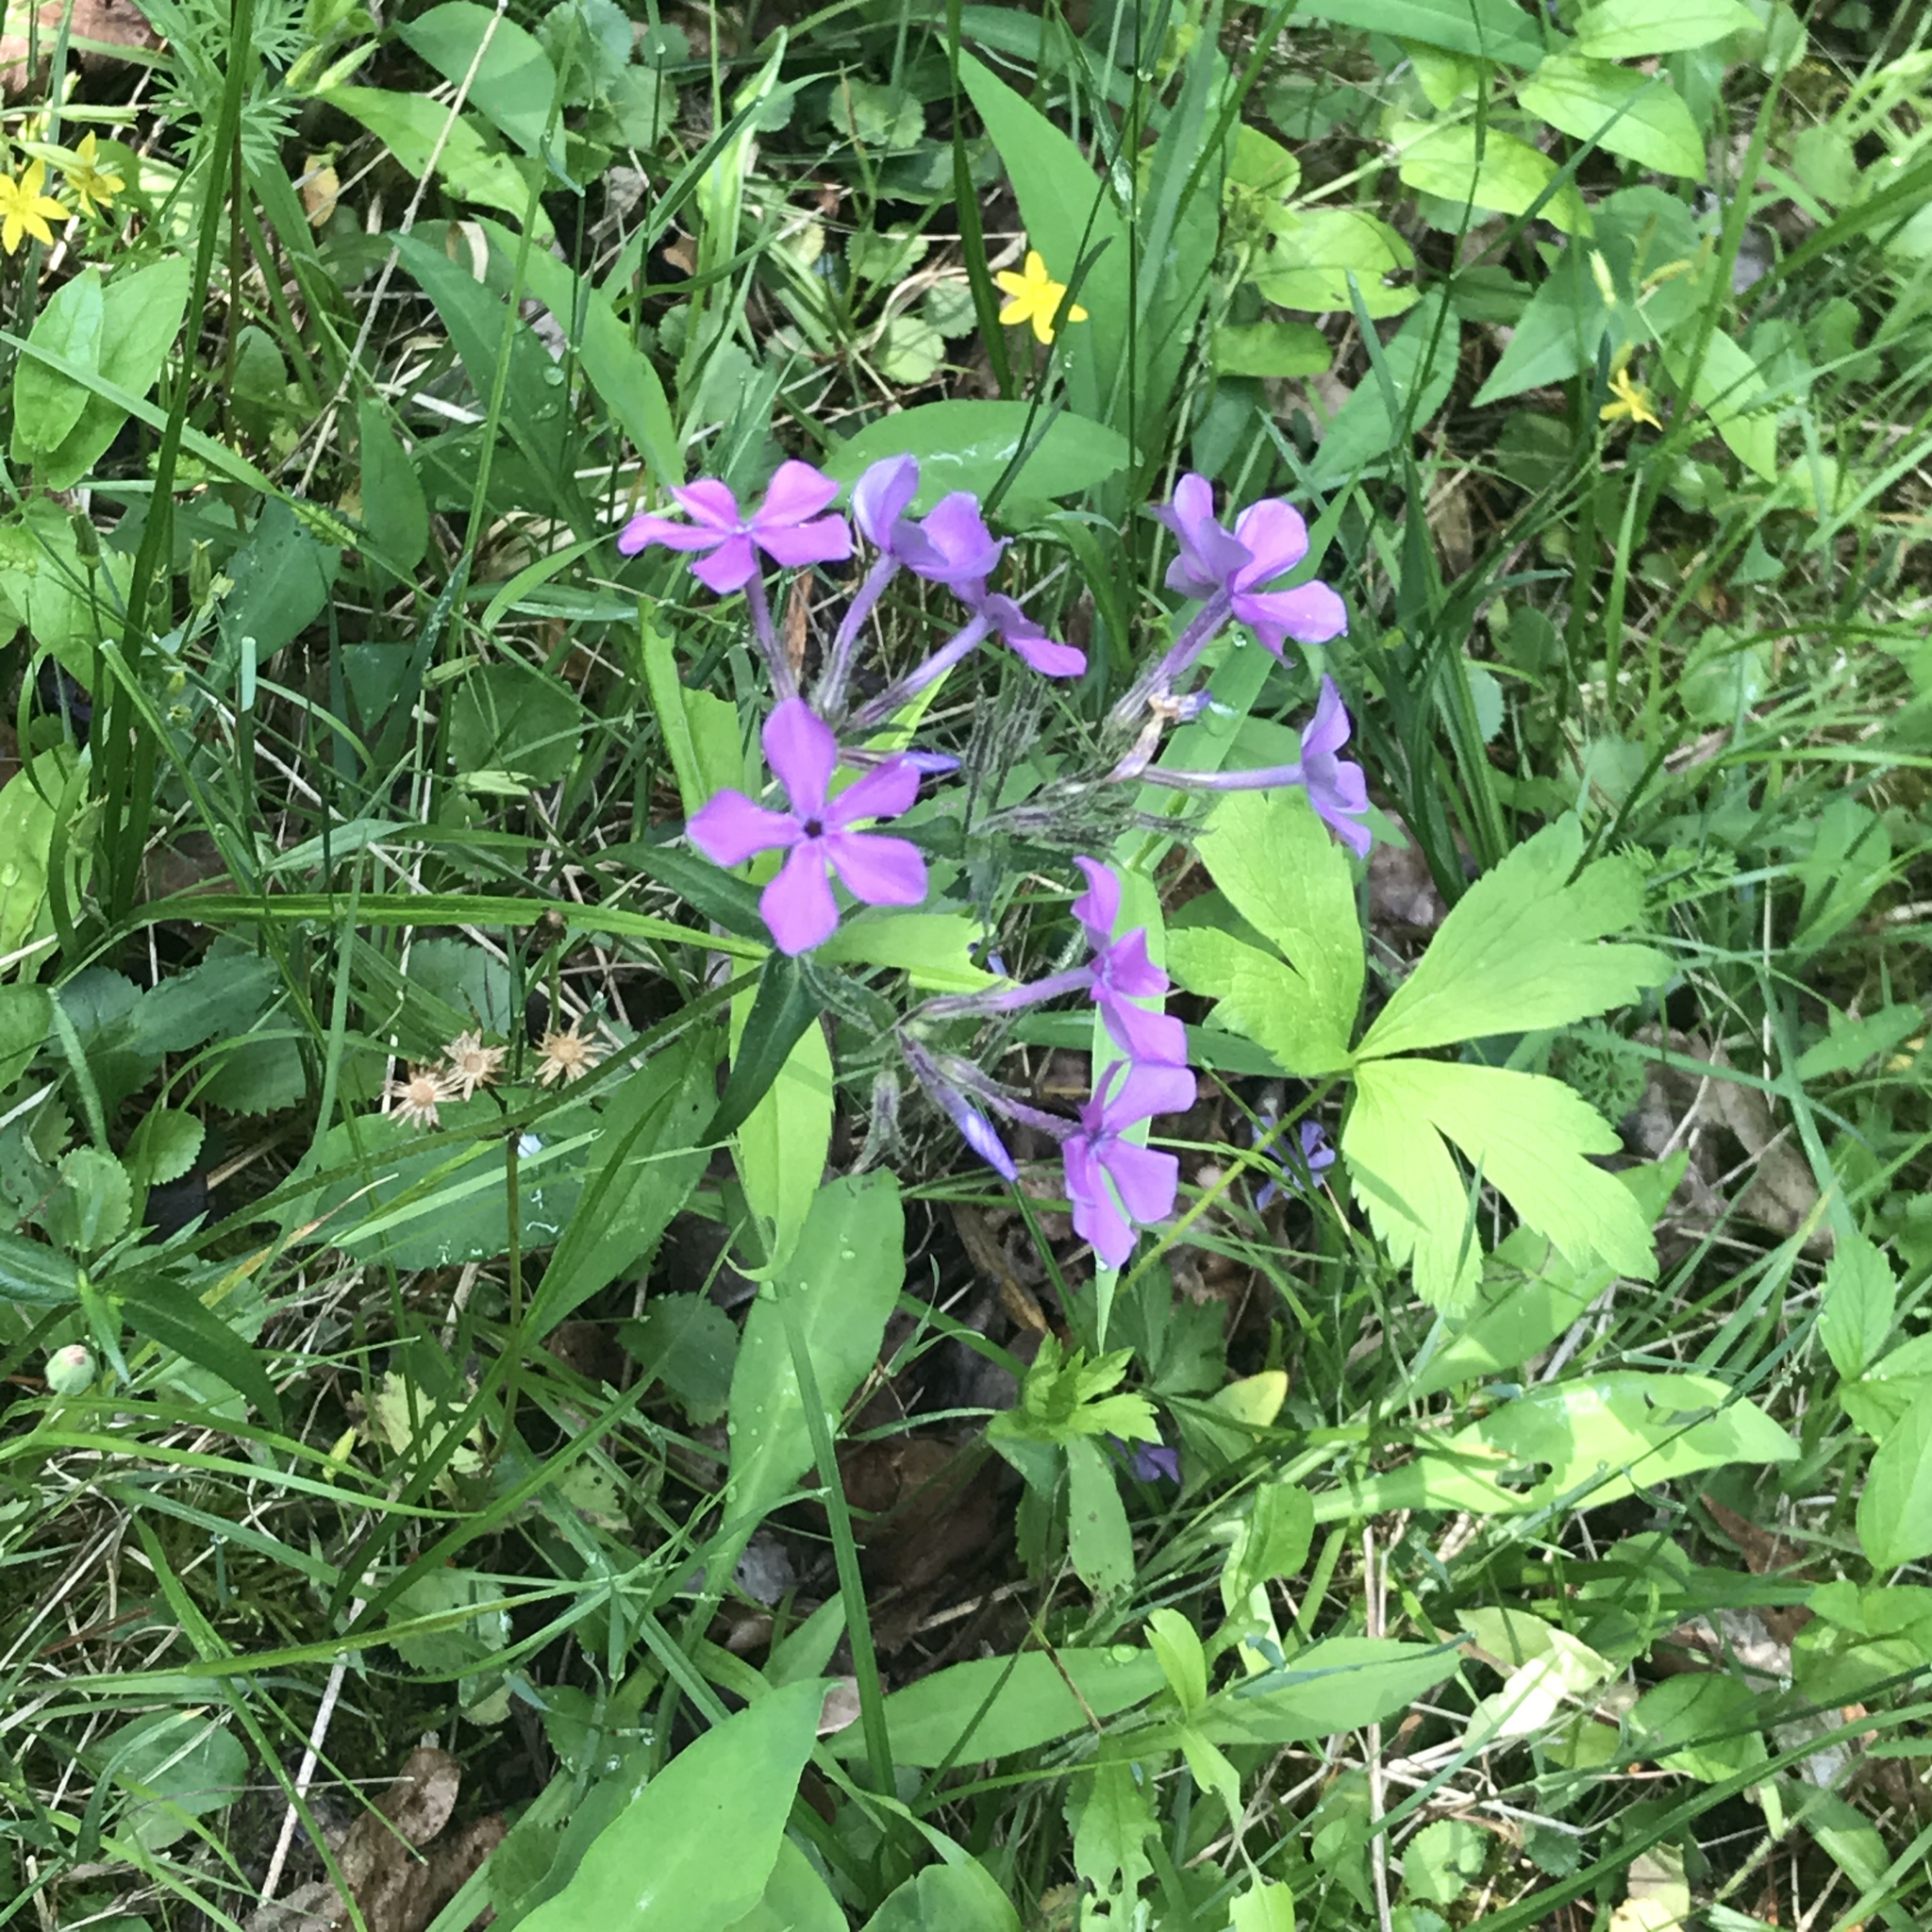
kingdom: Plantae
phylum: Tracheophyta
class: Magnoliopsida
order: Ericales
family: Polemoniaceae
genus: Phlox
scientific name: Phlox pilosa
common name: Prairie phlox
